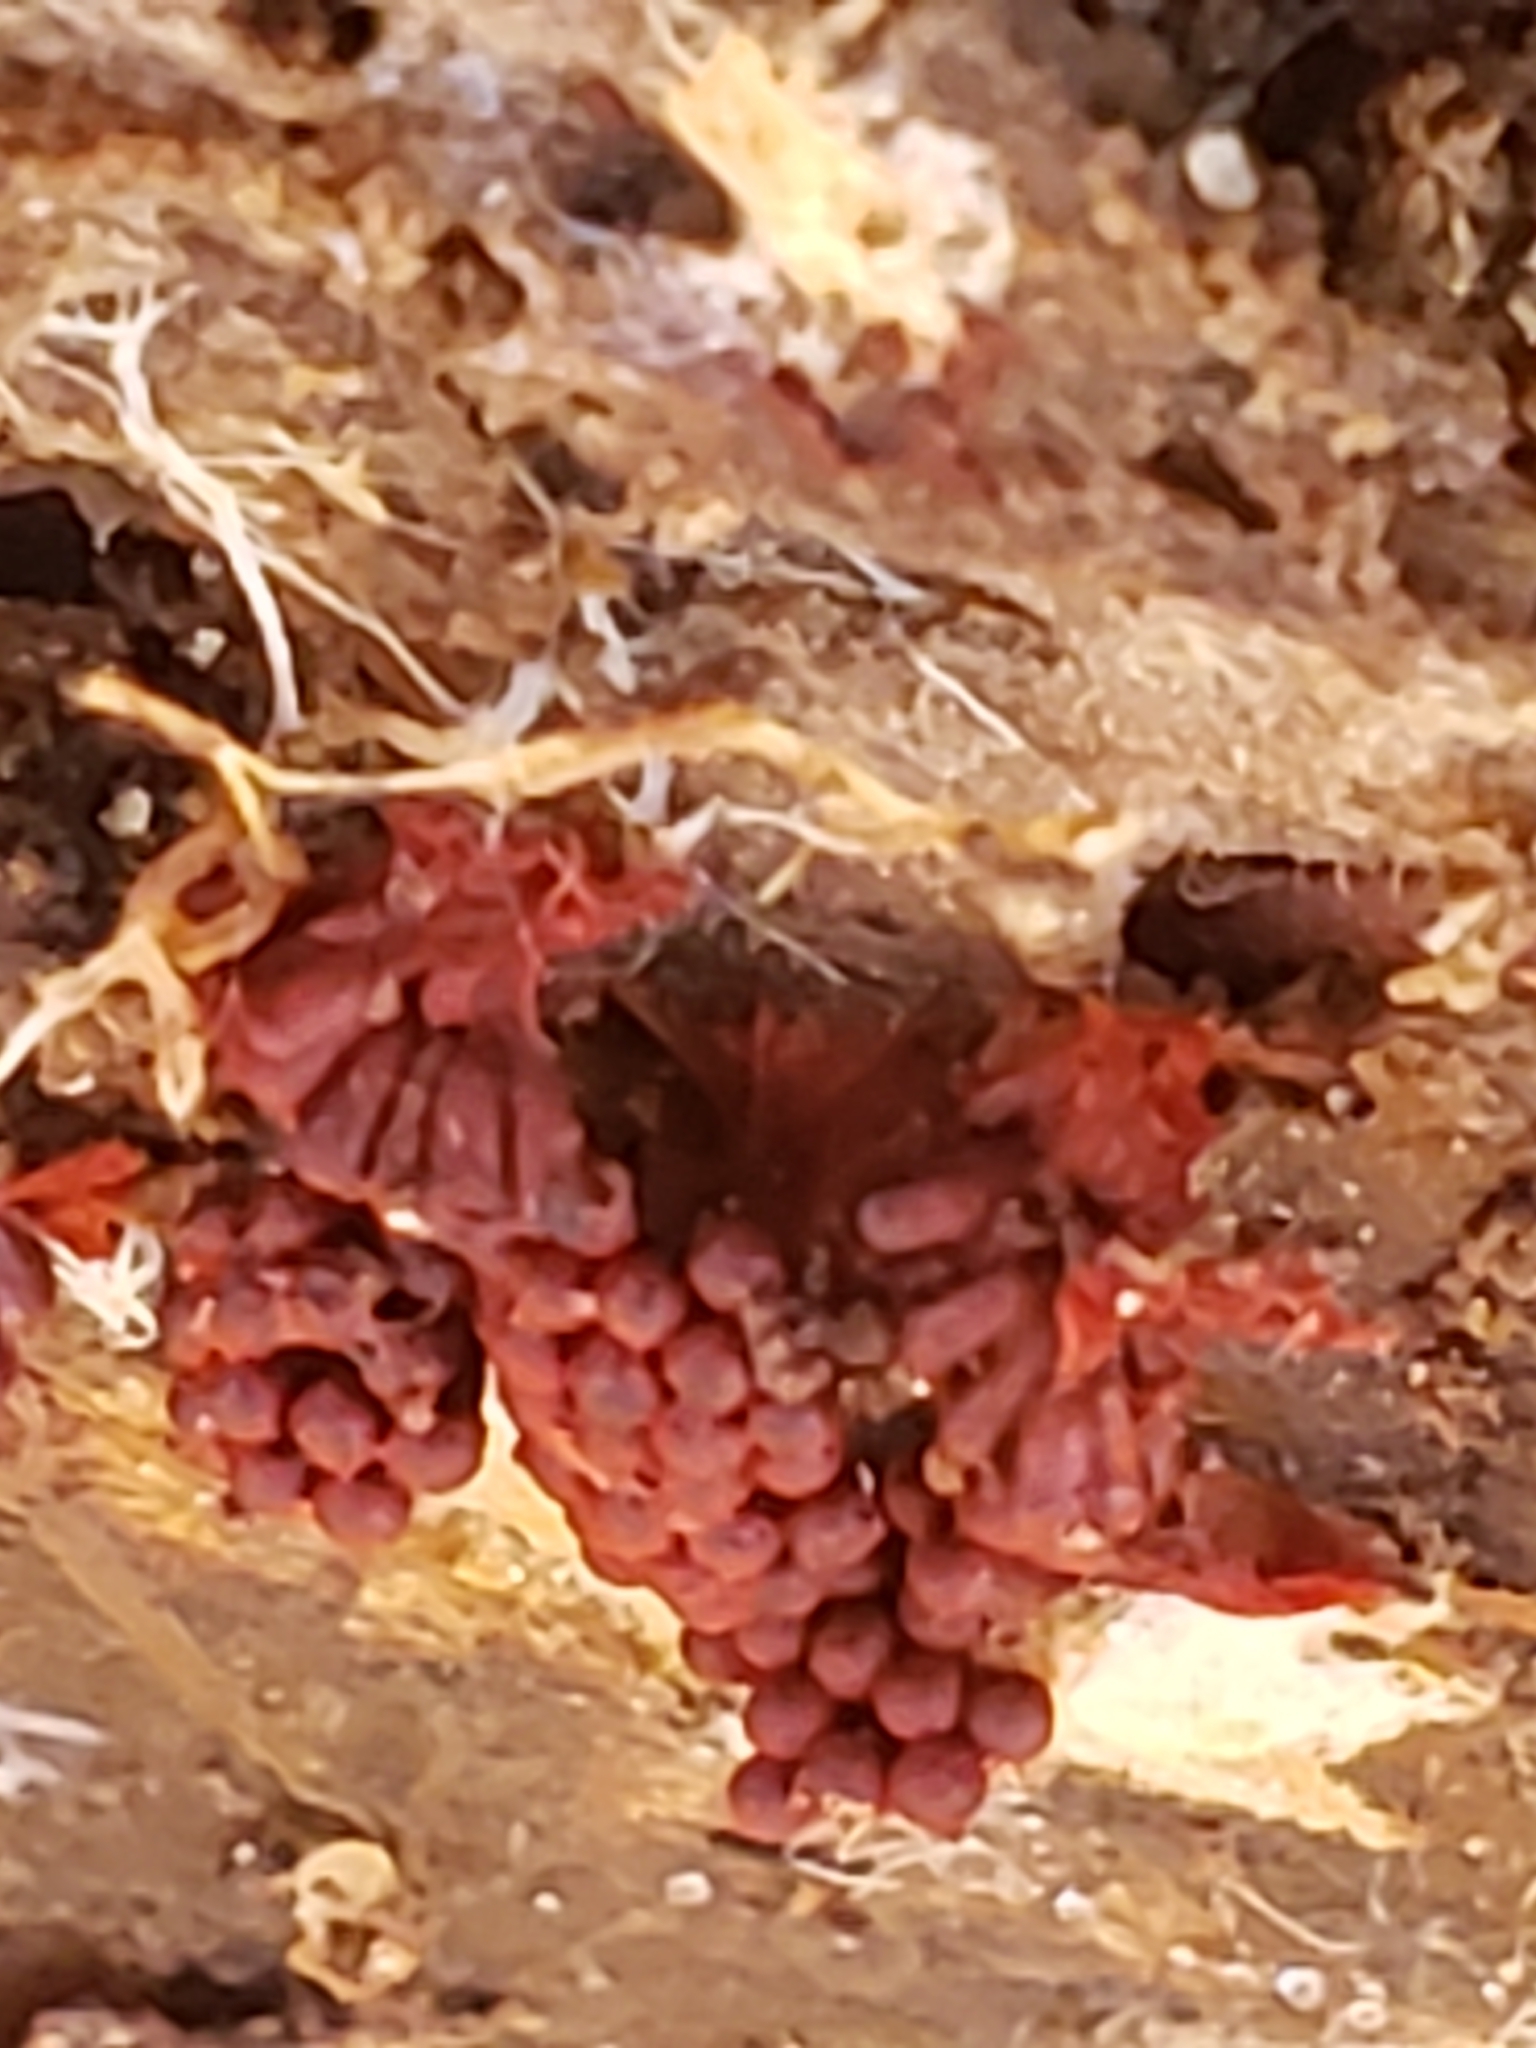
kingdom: Protozoa
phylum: Mycetozoa
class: Myxomycetes
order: Trichiales
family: Trichiaceae
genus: Metatrichia
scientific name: Metatrichia vesparia
